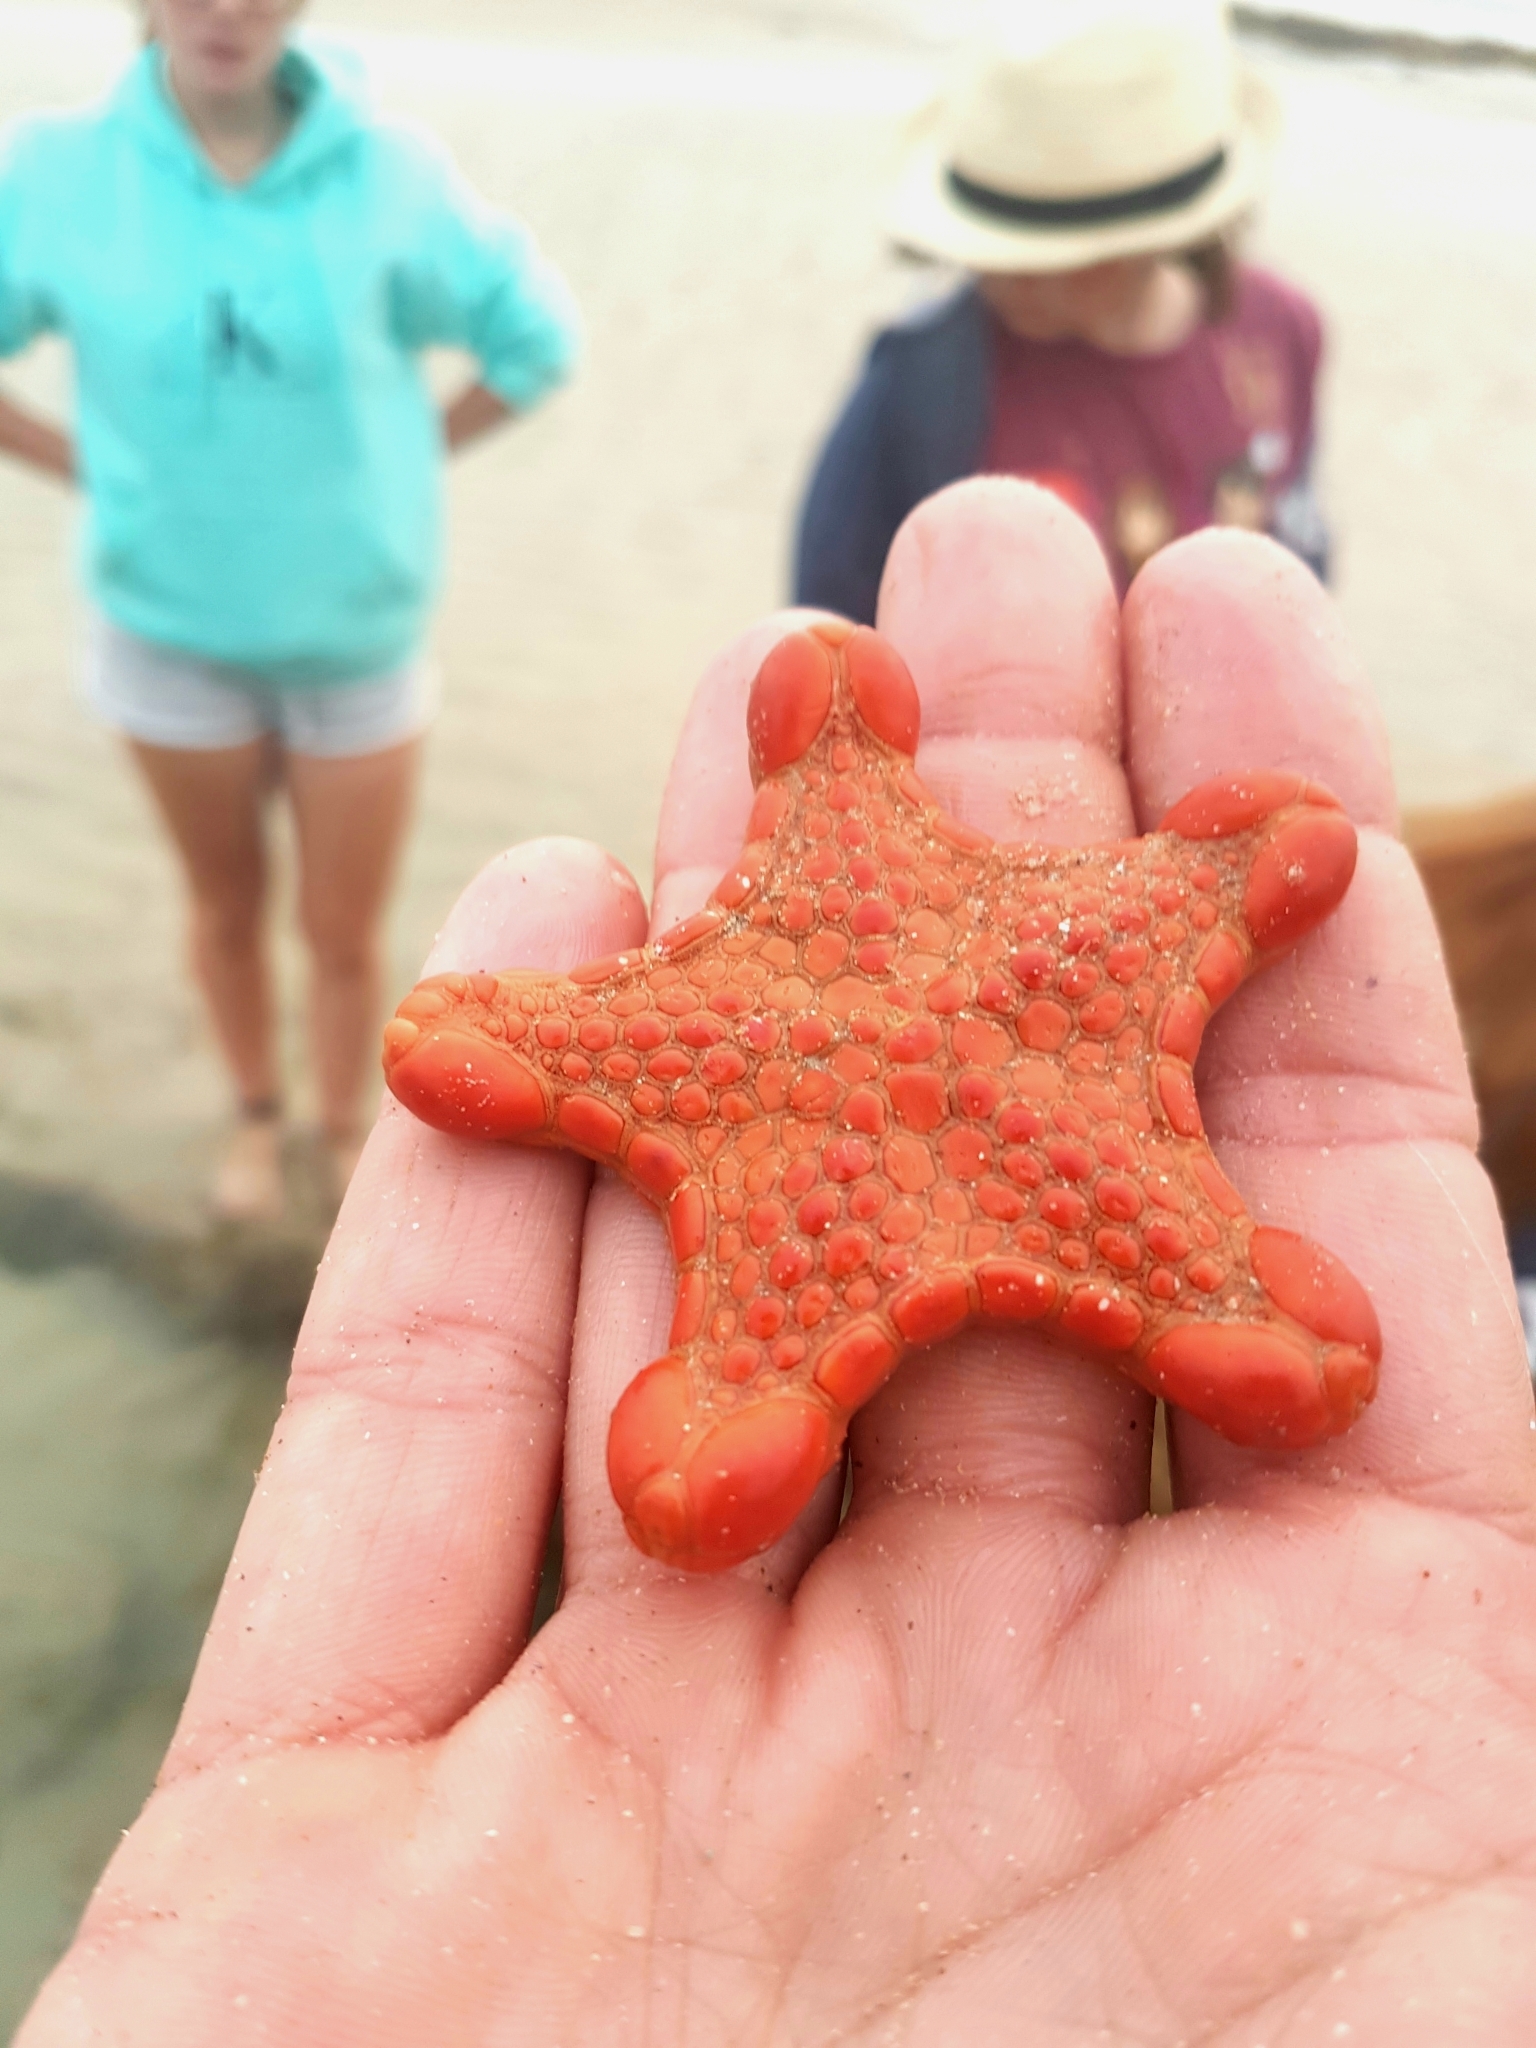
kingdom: Animalia
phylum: Echinodermata
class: Asteroidea
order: Valvatida
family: Goniasteridae
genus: Pentagonaster
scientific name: Pentagonaster duebeni
